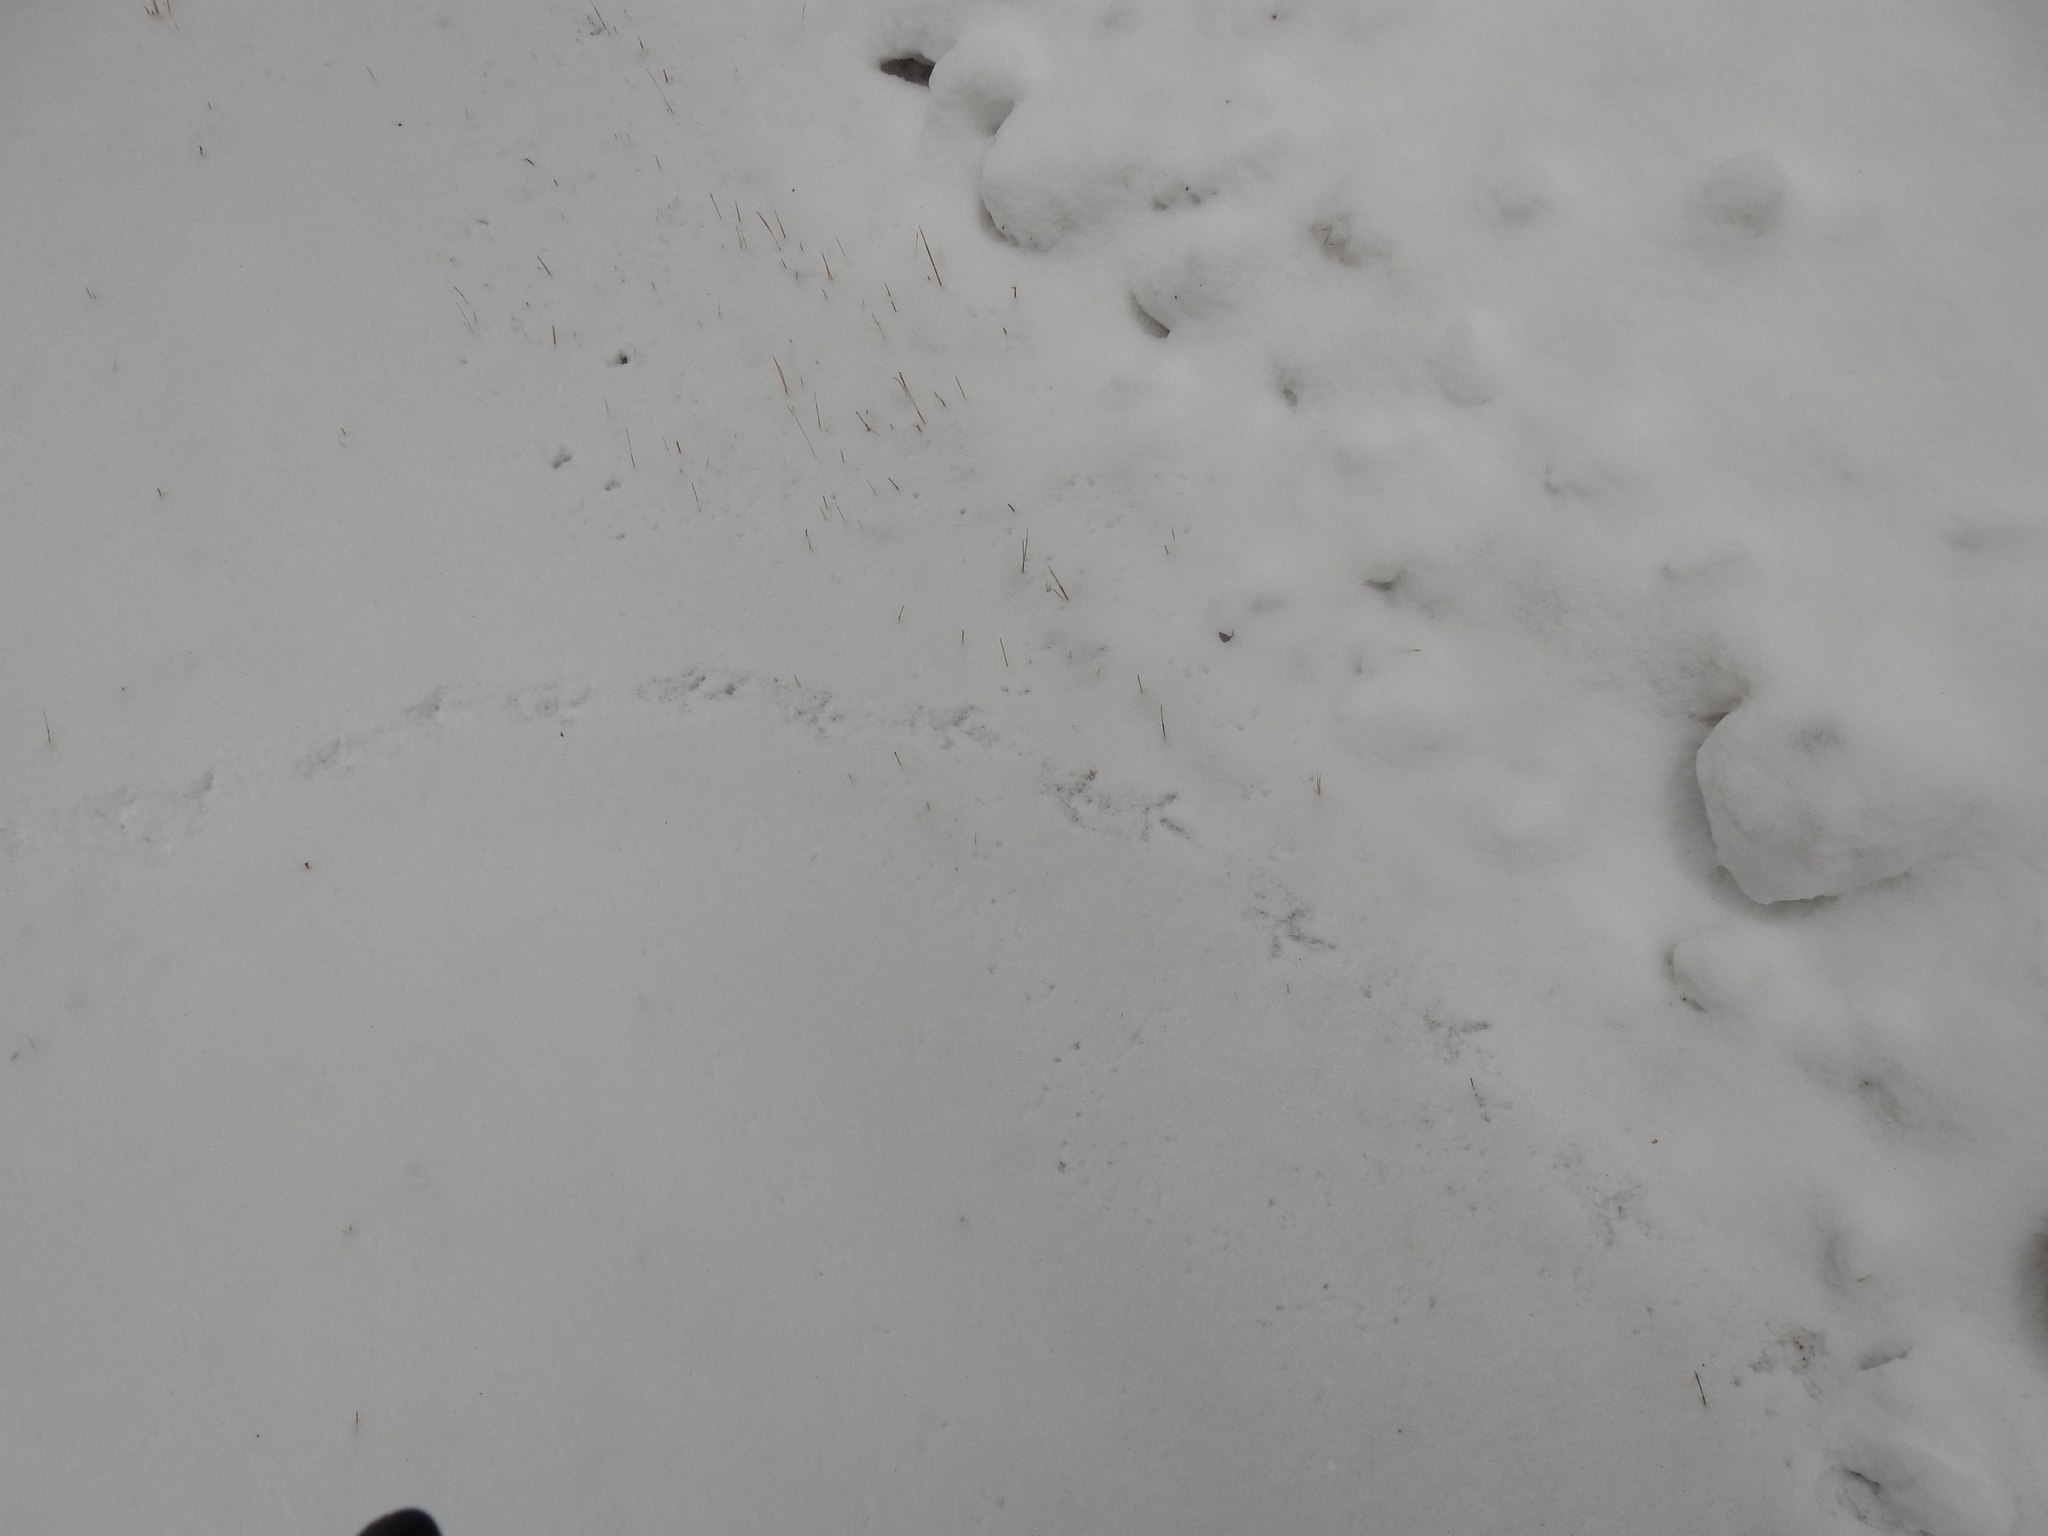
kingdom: Animalia
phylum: Chordata
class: Aves
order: Galliformes
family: Phasianidae
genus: Bonasa
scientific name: Bonasa umbellus
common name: Ruffed grouse
